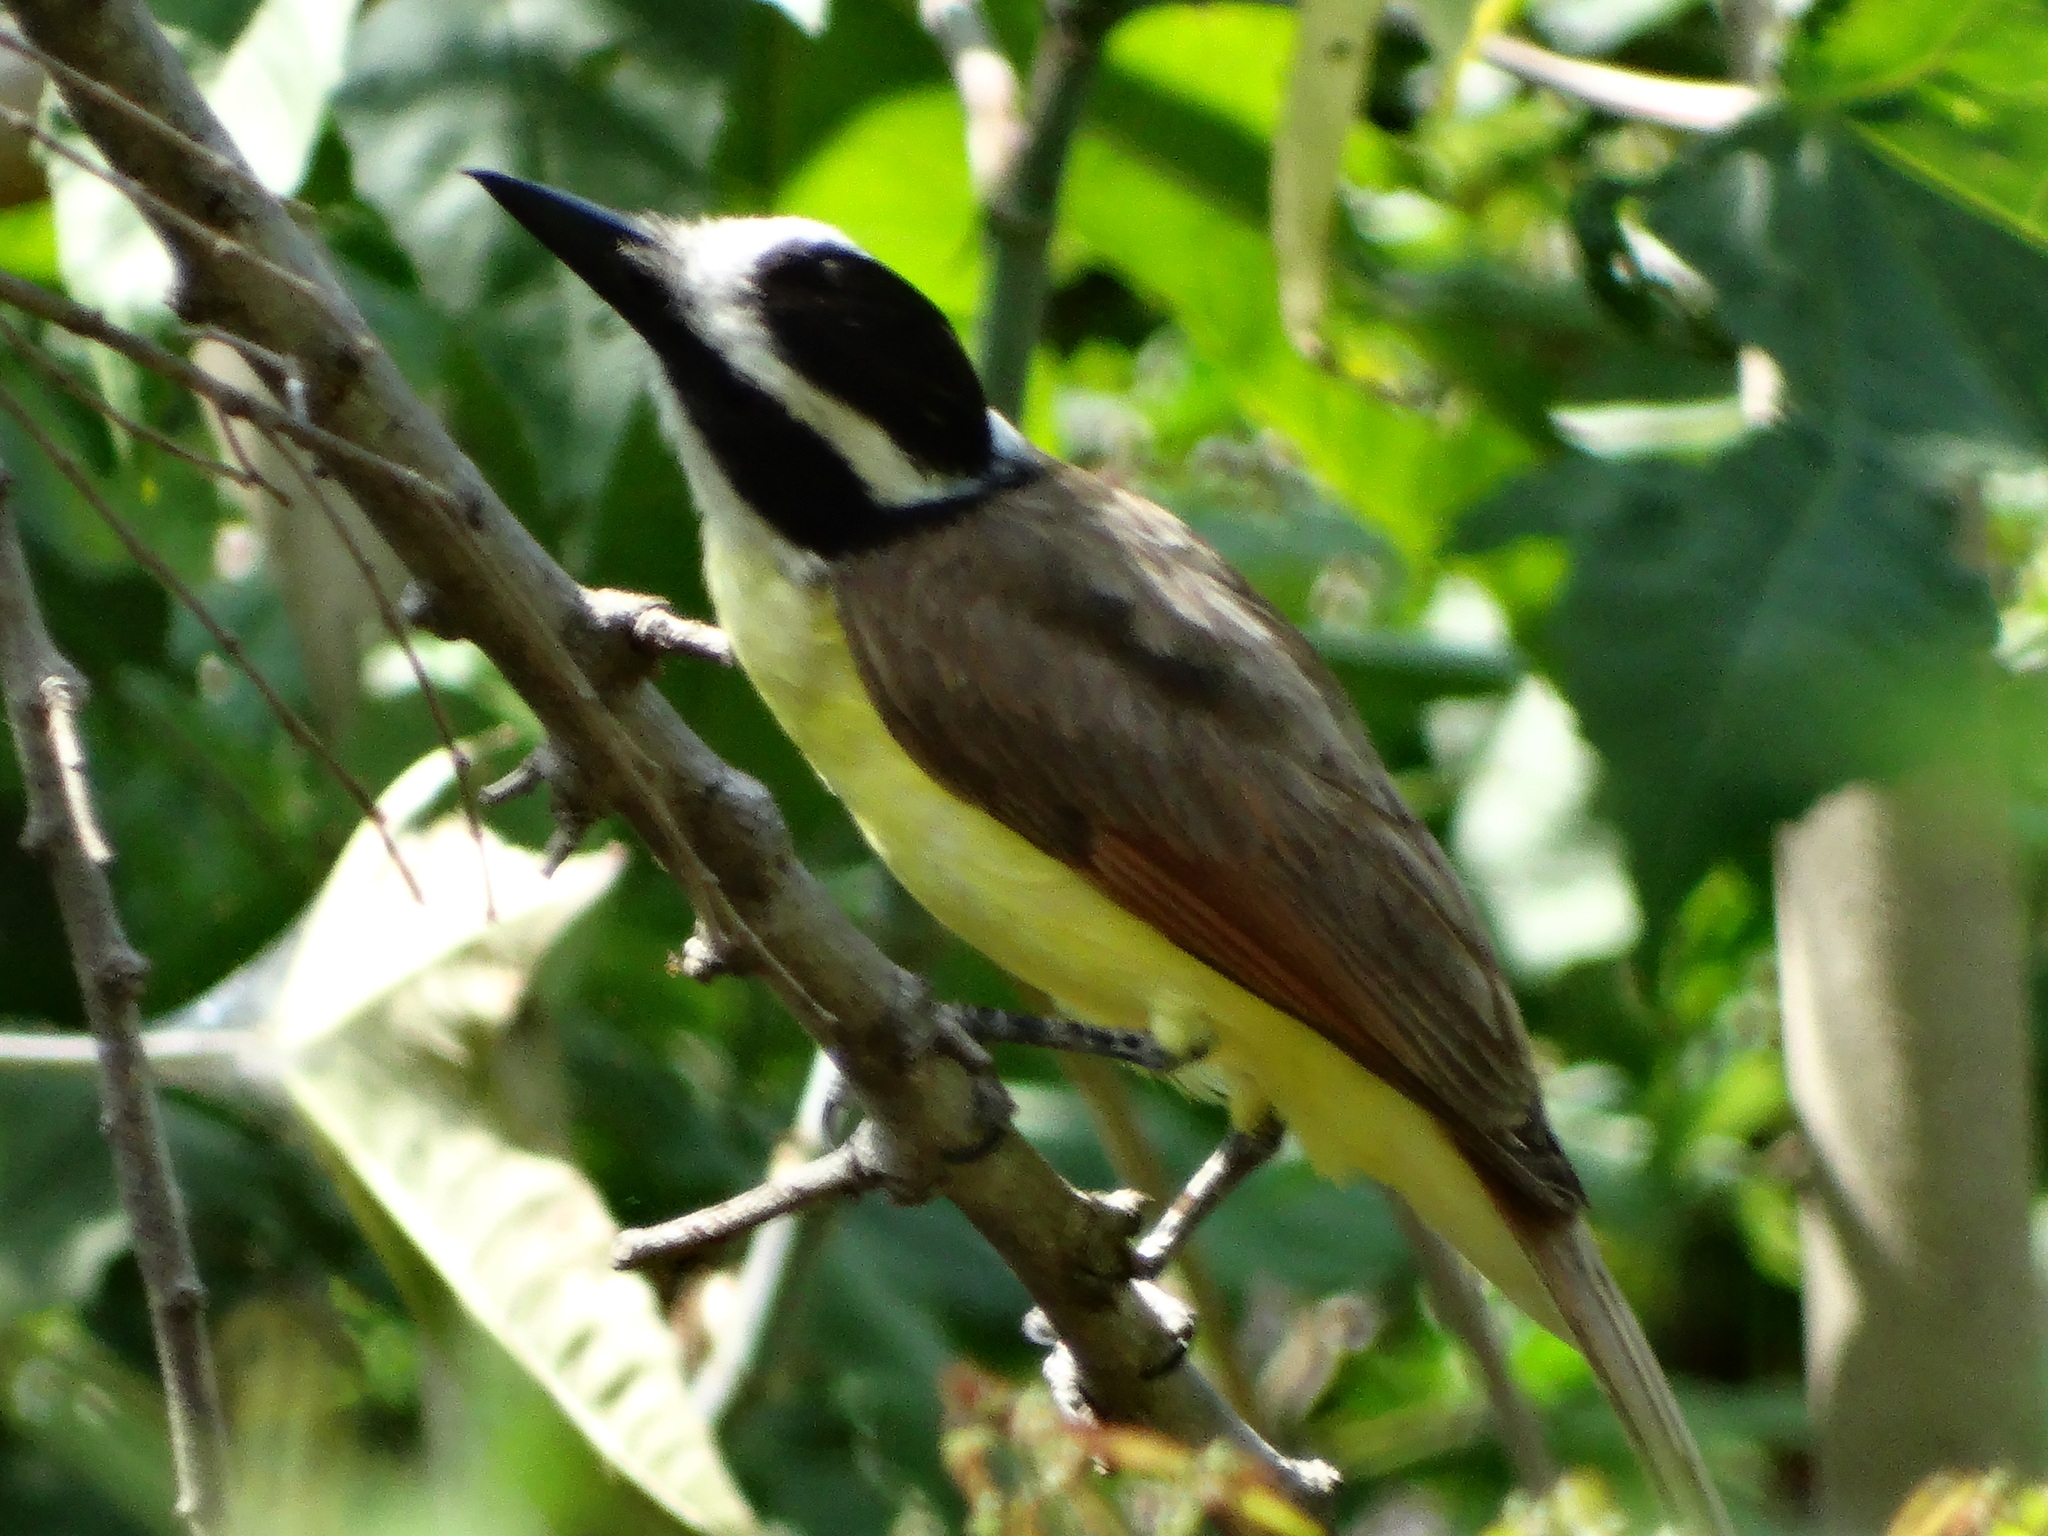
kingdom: Animalia
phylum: Chordata
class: Aves
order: Passeriformes
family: Tyrannidae
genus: Pitangus
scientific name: Pitangus sulphuratus
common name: Great kiskadee
